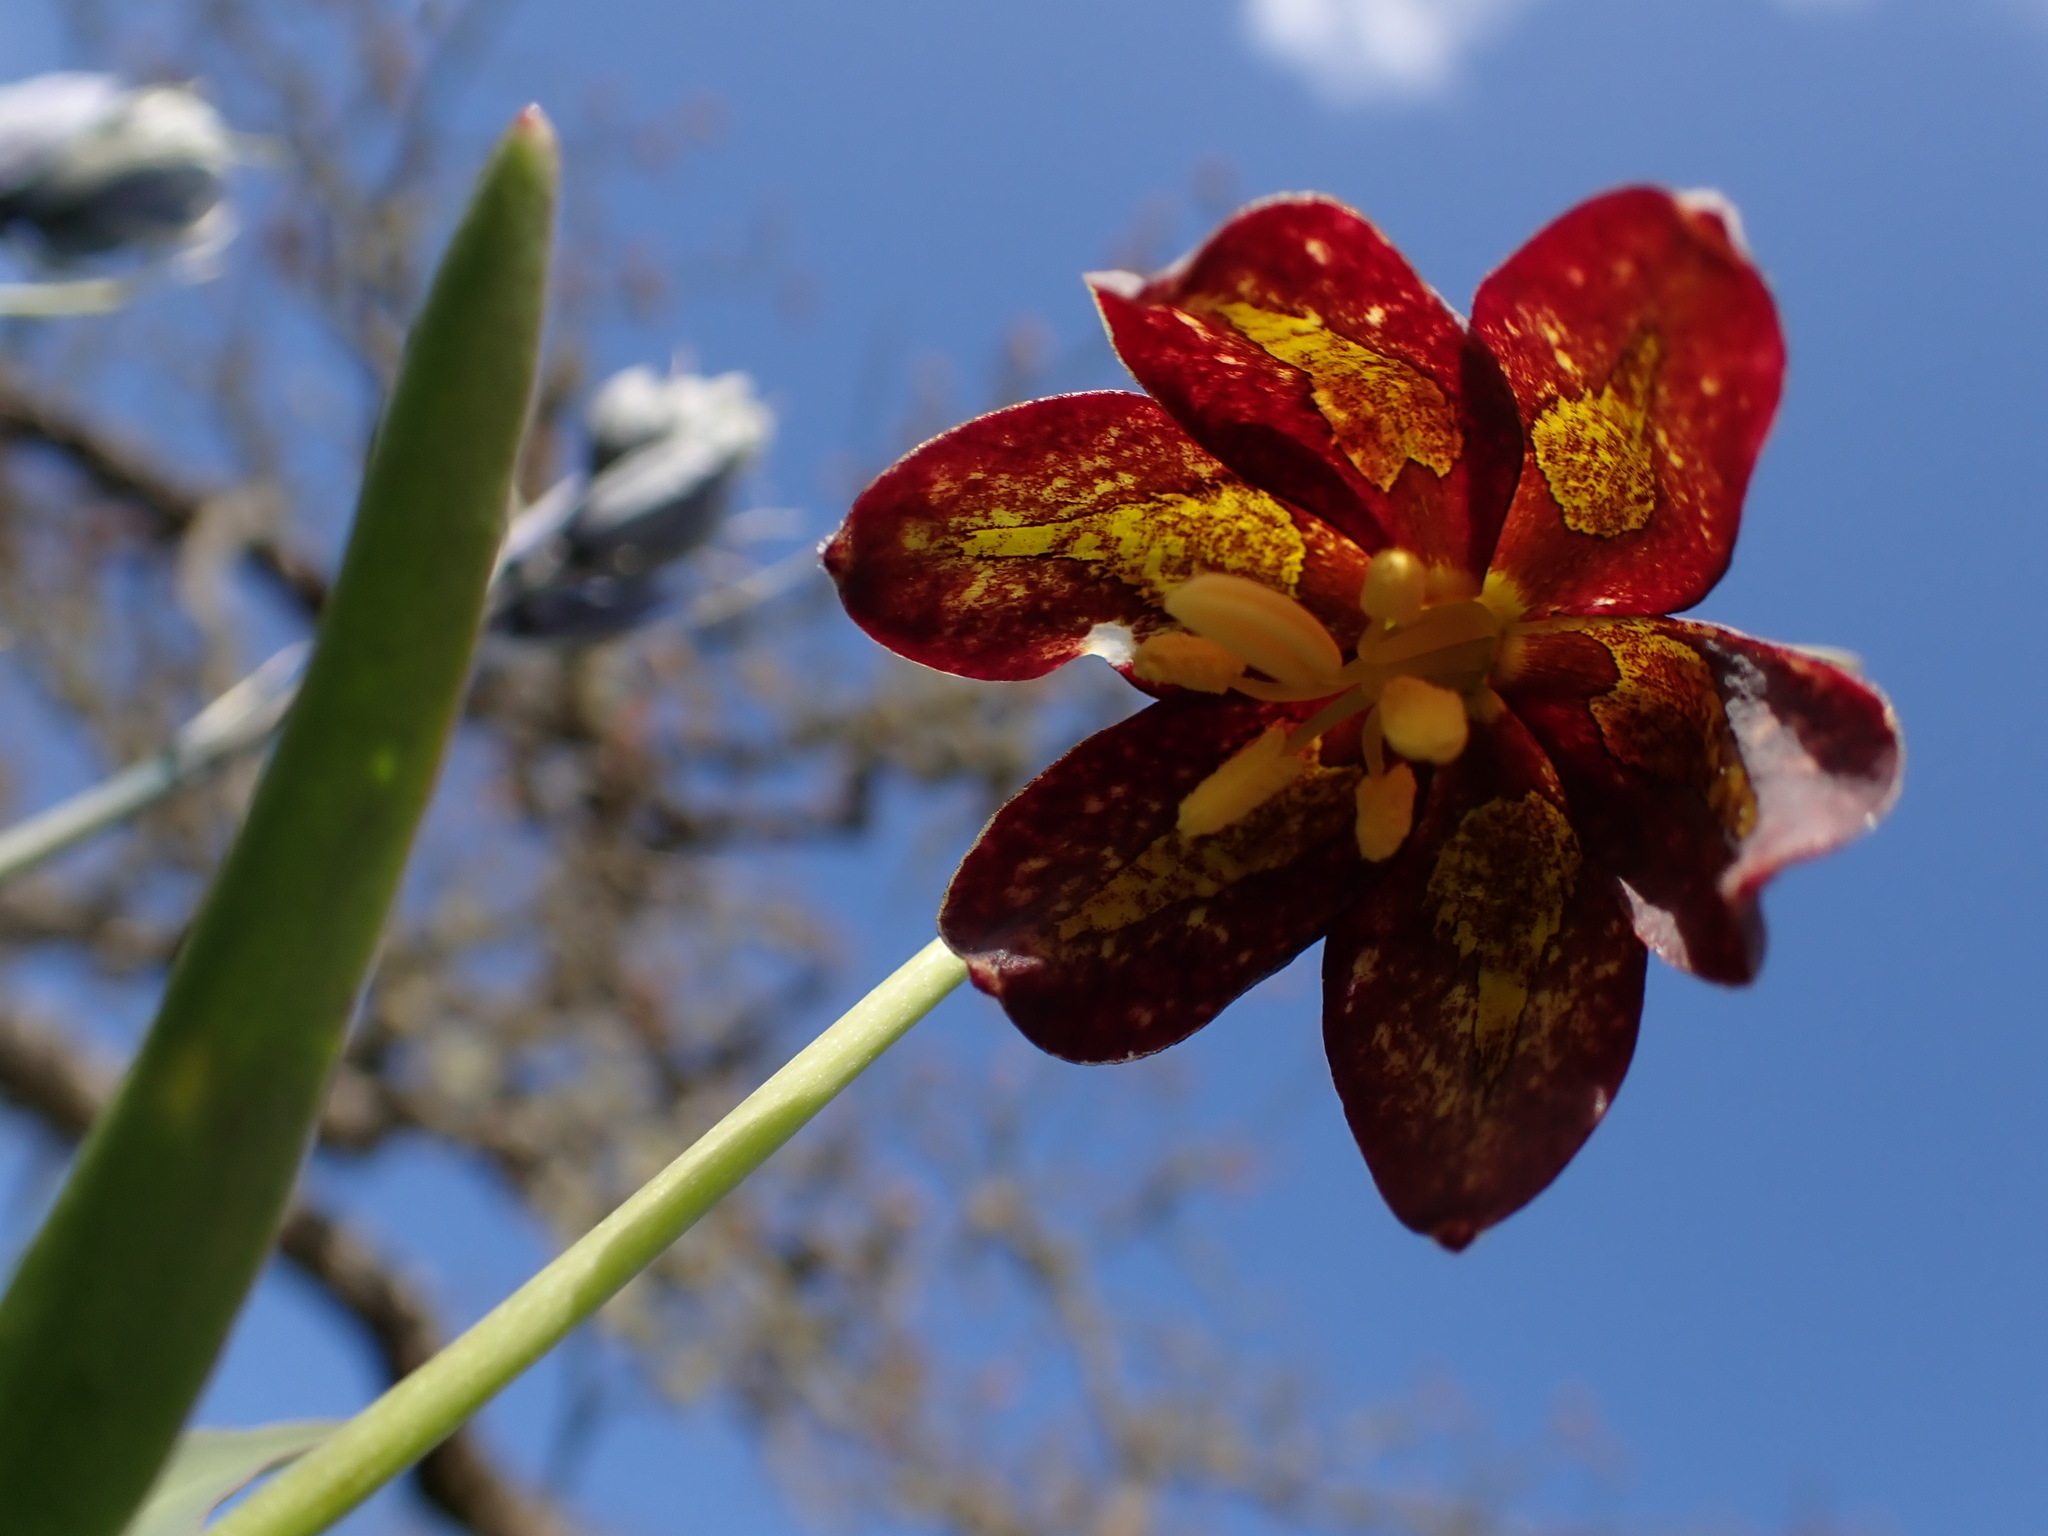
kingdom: Plantae
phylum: Tracheophyta
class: Liliopsida
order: Liliales
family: Liliaceae
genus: Fritillaria
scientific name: Fritillaria affinis
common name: Ojai fritillary
